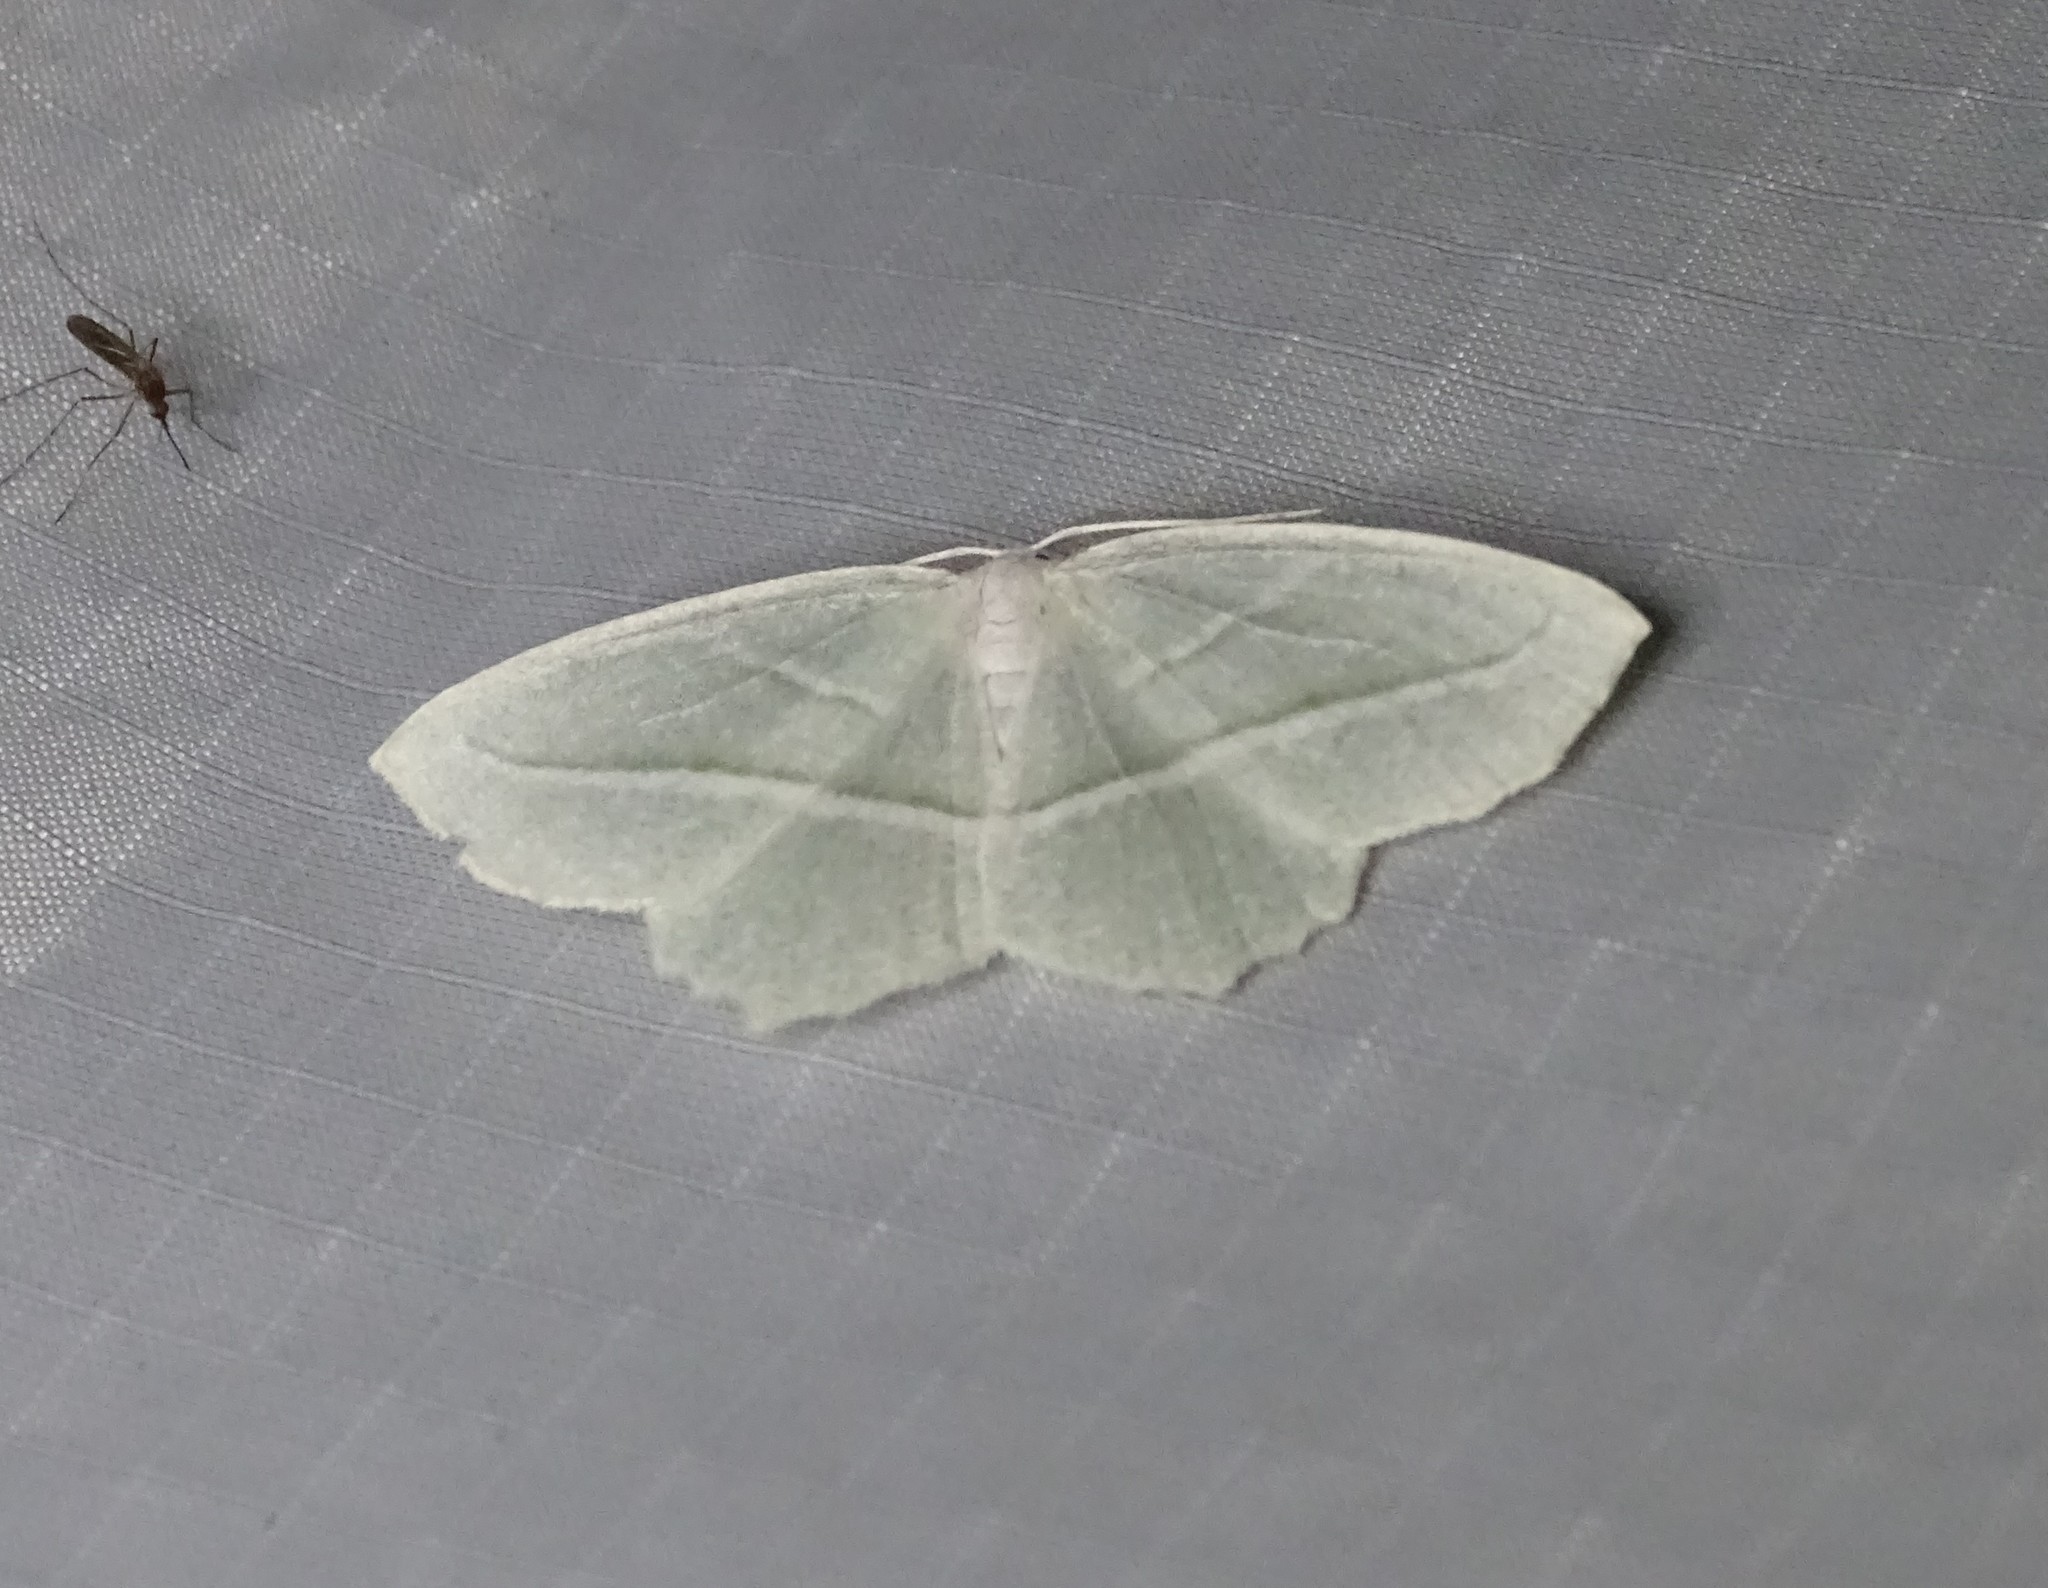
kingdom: Animalia
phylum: Arthropoda
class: Insecta
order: Lepidoptera
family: Geometridae
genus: Campaea
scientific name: Campaea perlata
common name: Fringed looper
